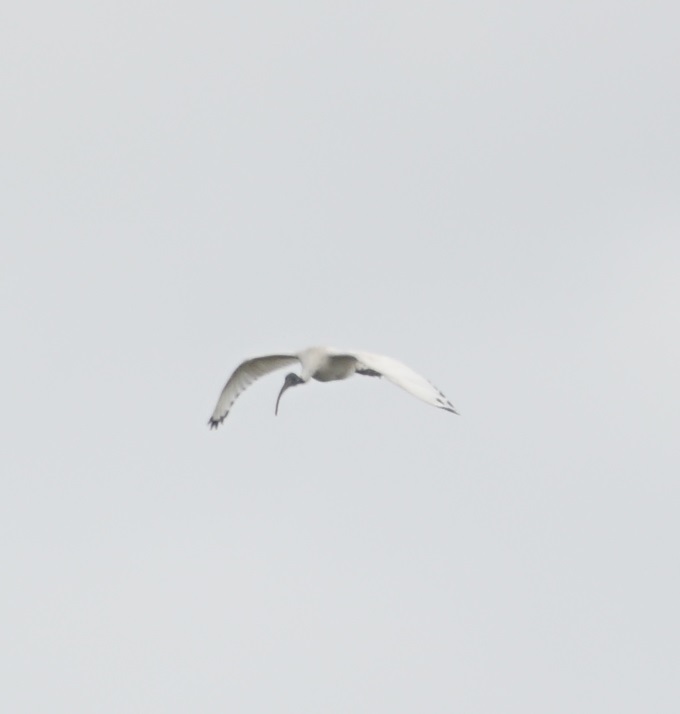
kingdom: Animalia
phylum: Chordata
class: Aves
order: Pelecaniformes
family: Threskiornithidae
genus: Threskiornis
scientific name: Threskiornis molucca
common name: Australian white ibis
